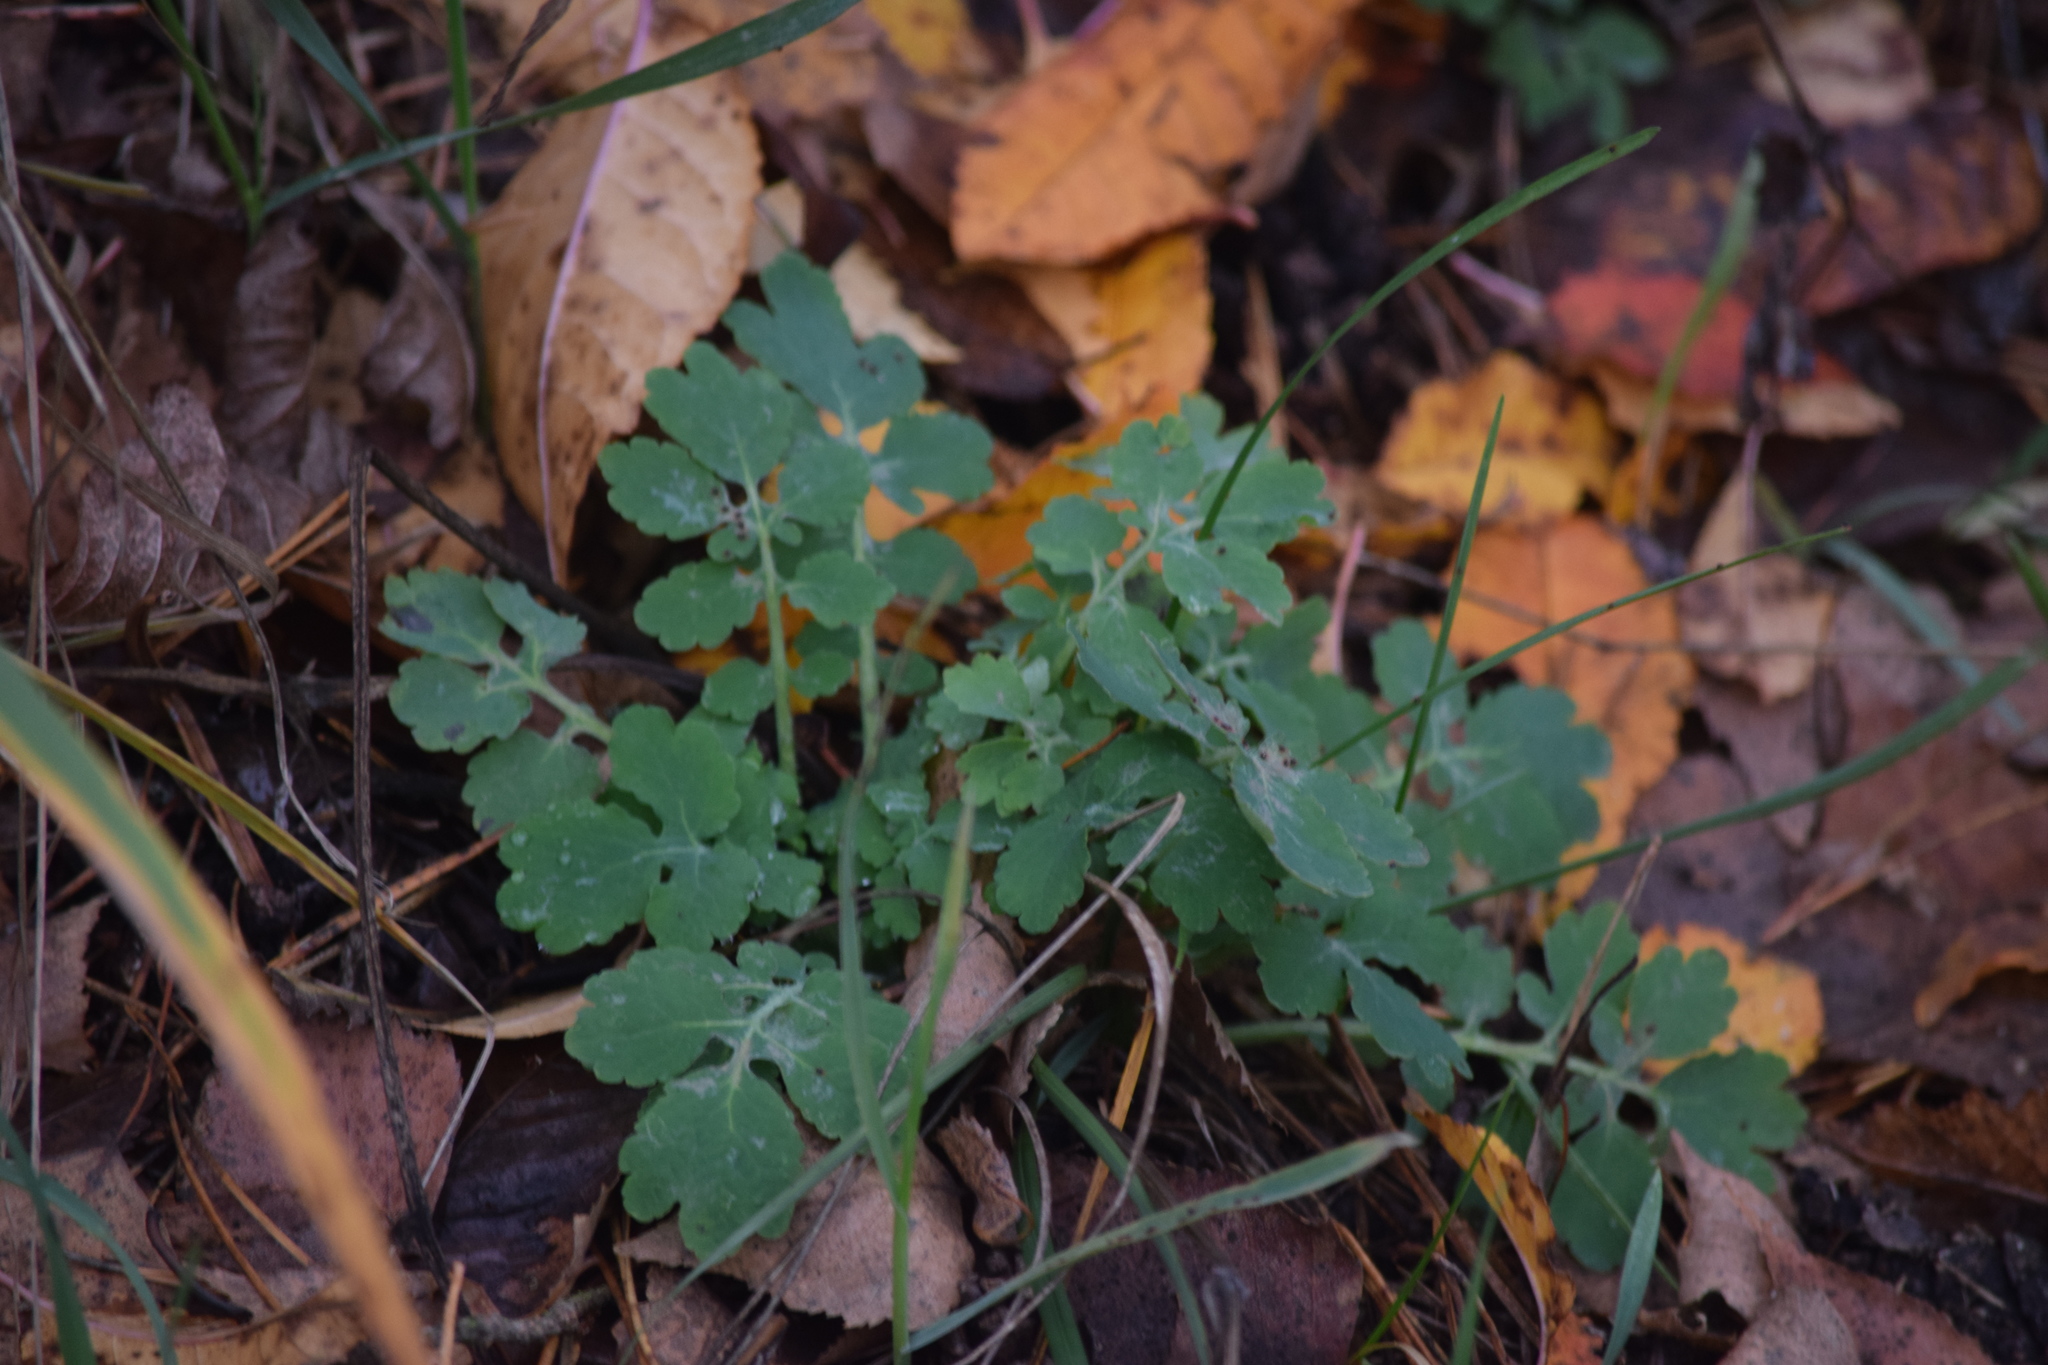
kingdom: Plantae
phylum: Tracheophyta
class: Magnoliopsida
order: Ranunculales
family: Papaveraceae
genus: Chelidonium
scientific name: Chelidonium majus
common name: Greater celandine
